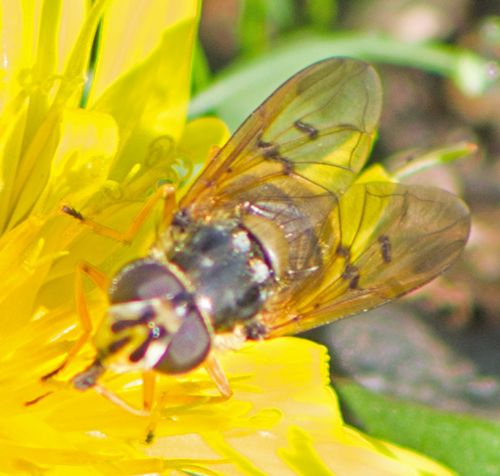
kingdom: Animalia
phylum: Arthropoda
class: Insecta
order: Diptera
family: Syrphidae
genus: Ferdinandea
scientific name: Ferdinandea aurea
